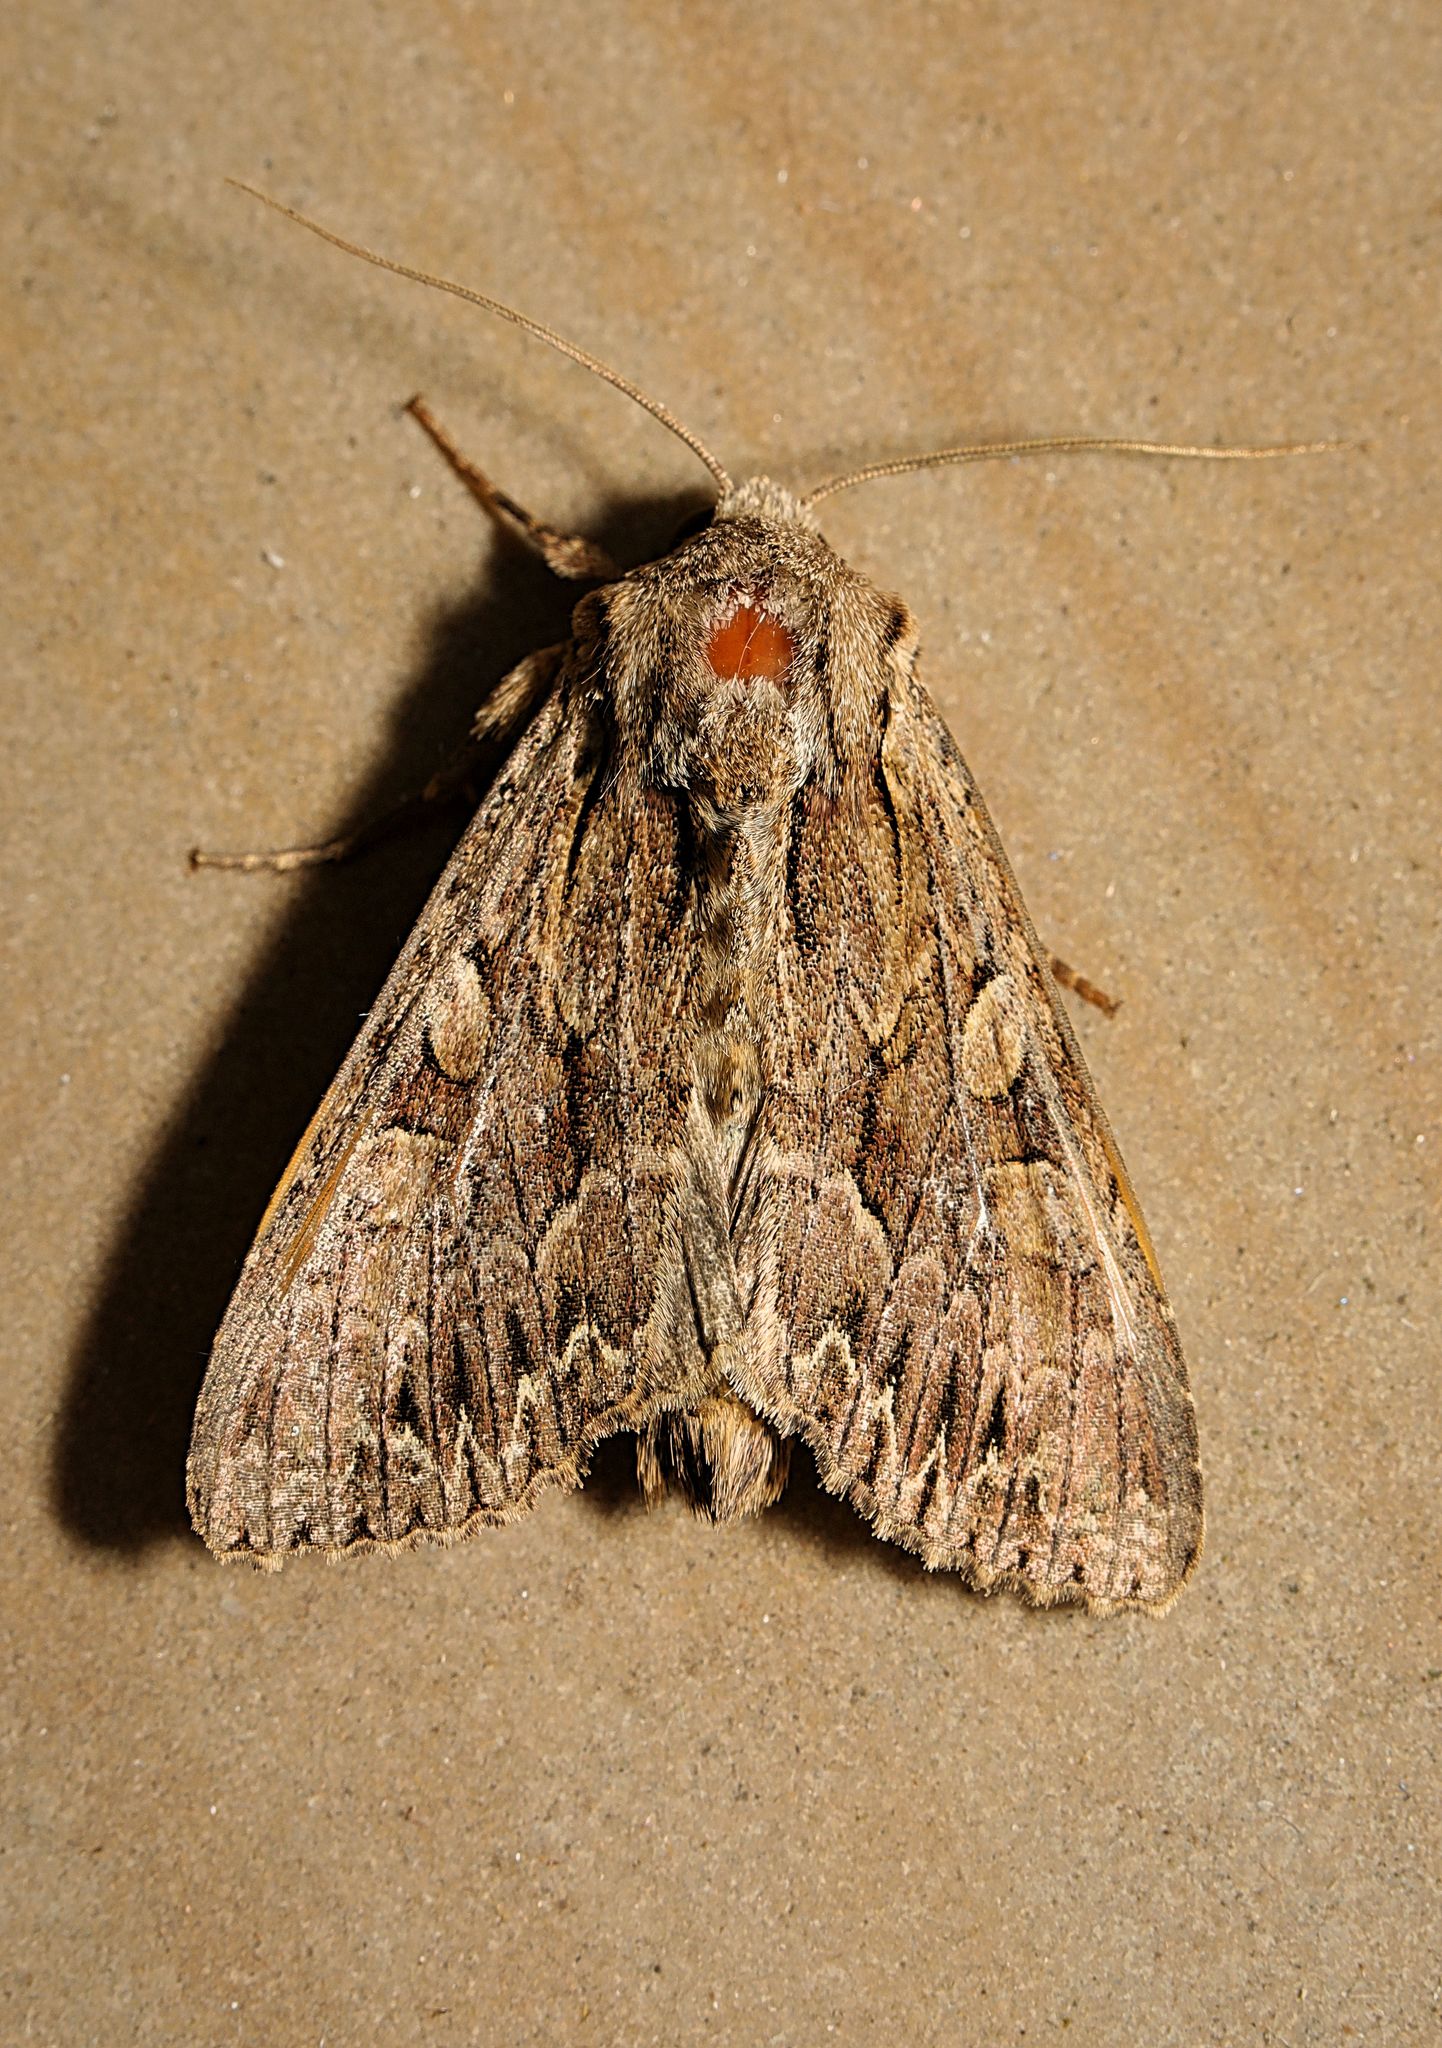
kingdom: Animalia
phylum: Arthropoda
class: Insecta
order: Lepidoptera
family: Noctuidae
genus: Apamea
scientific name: Apamea monoglypha
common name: Dark arches
